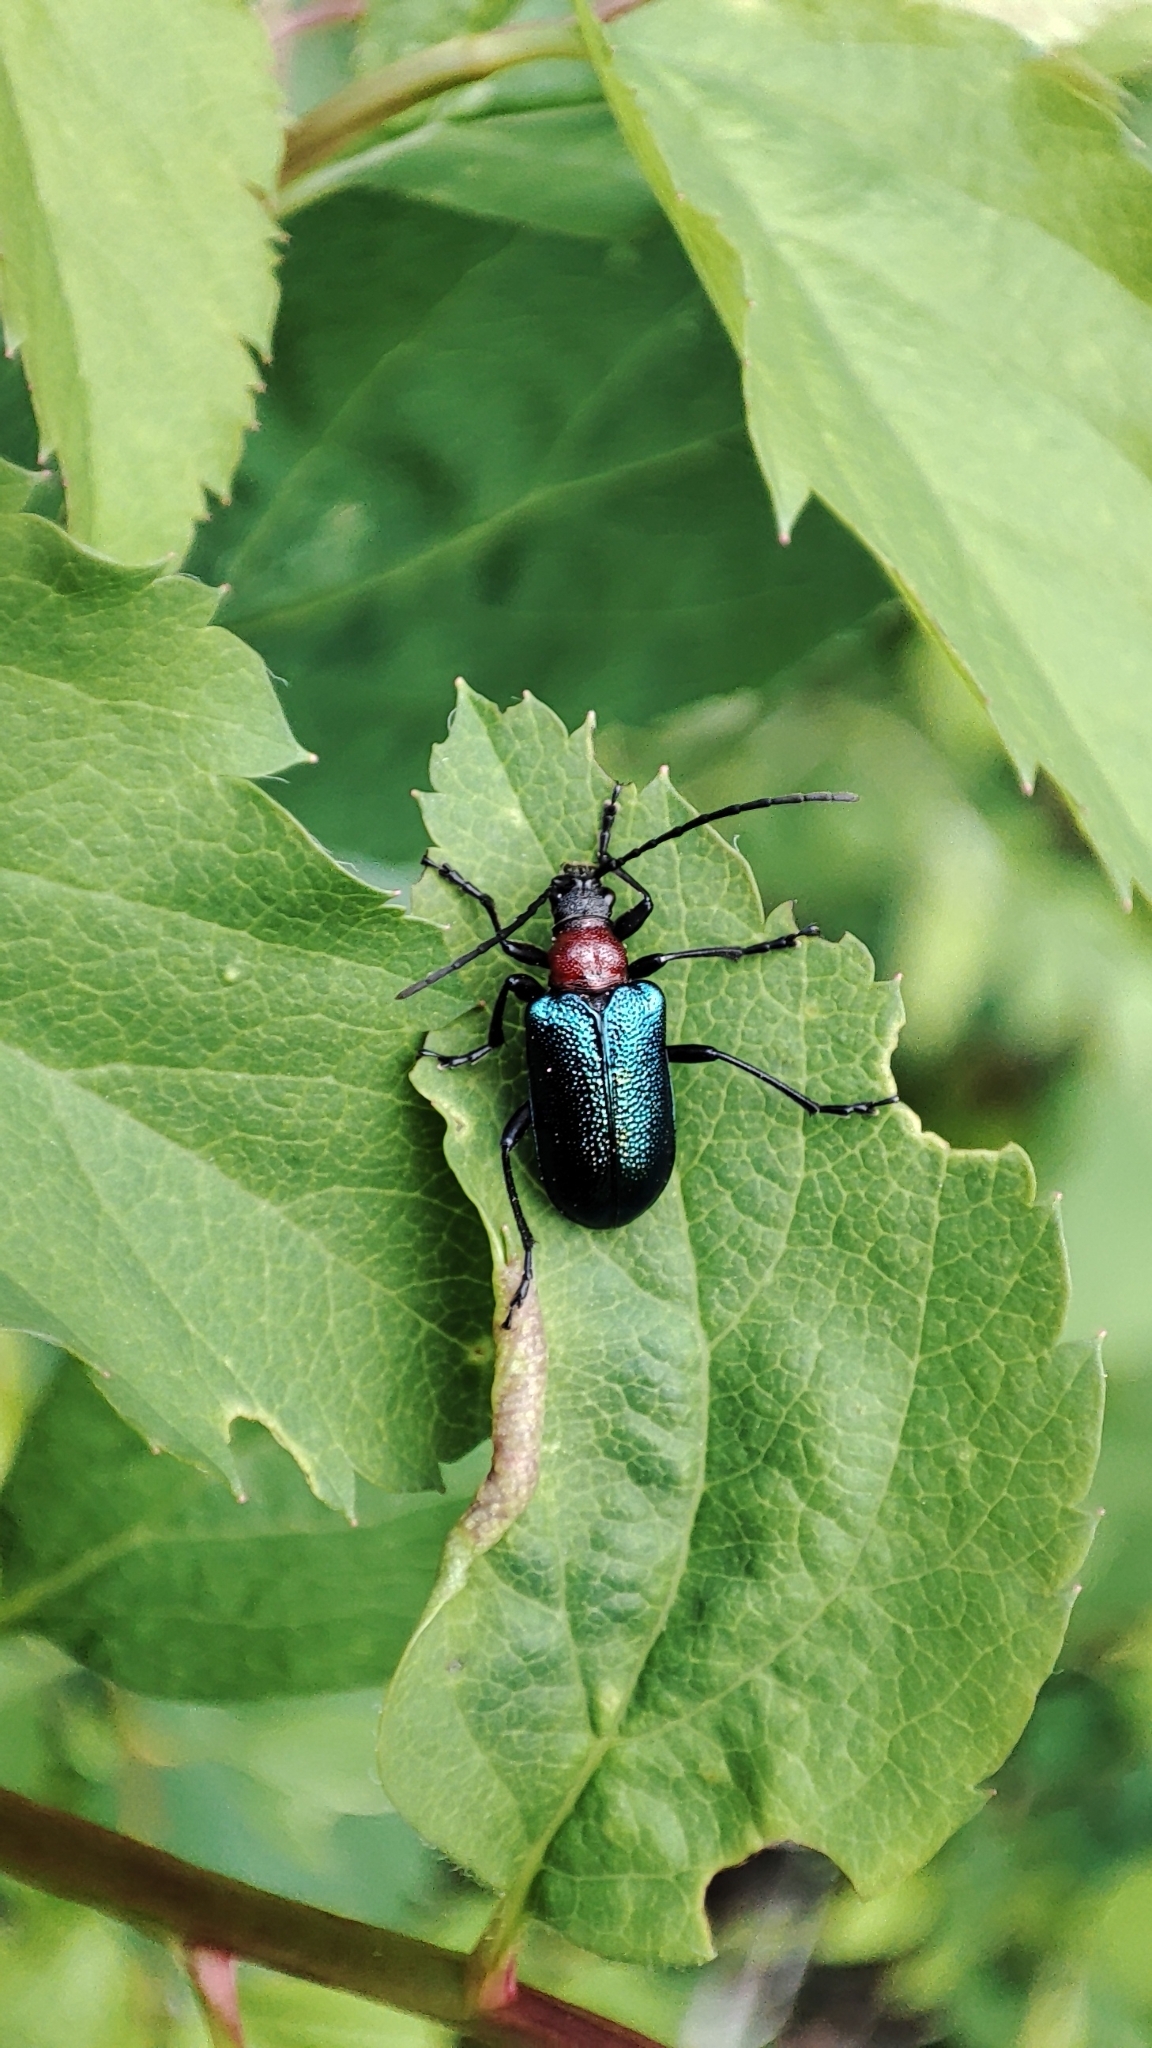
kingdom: Animalia
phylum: Arthropoda
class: Insecta
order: Coleoptera
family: Cerambycidae
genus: Gaurotes
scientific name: Gaurotes virginea
